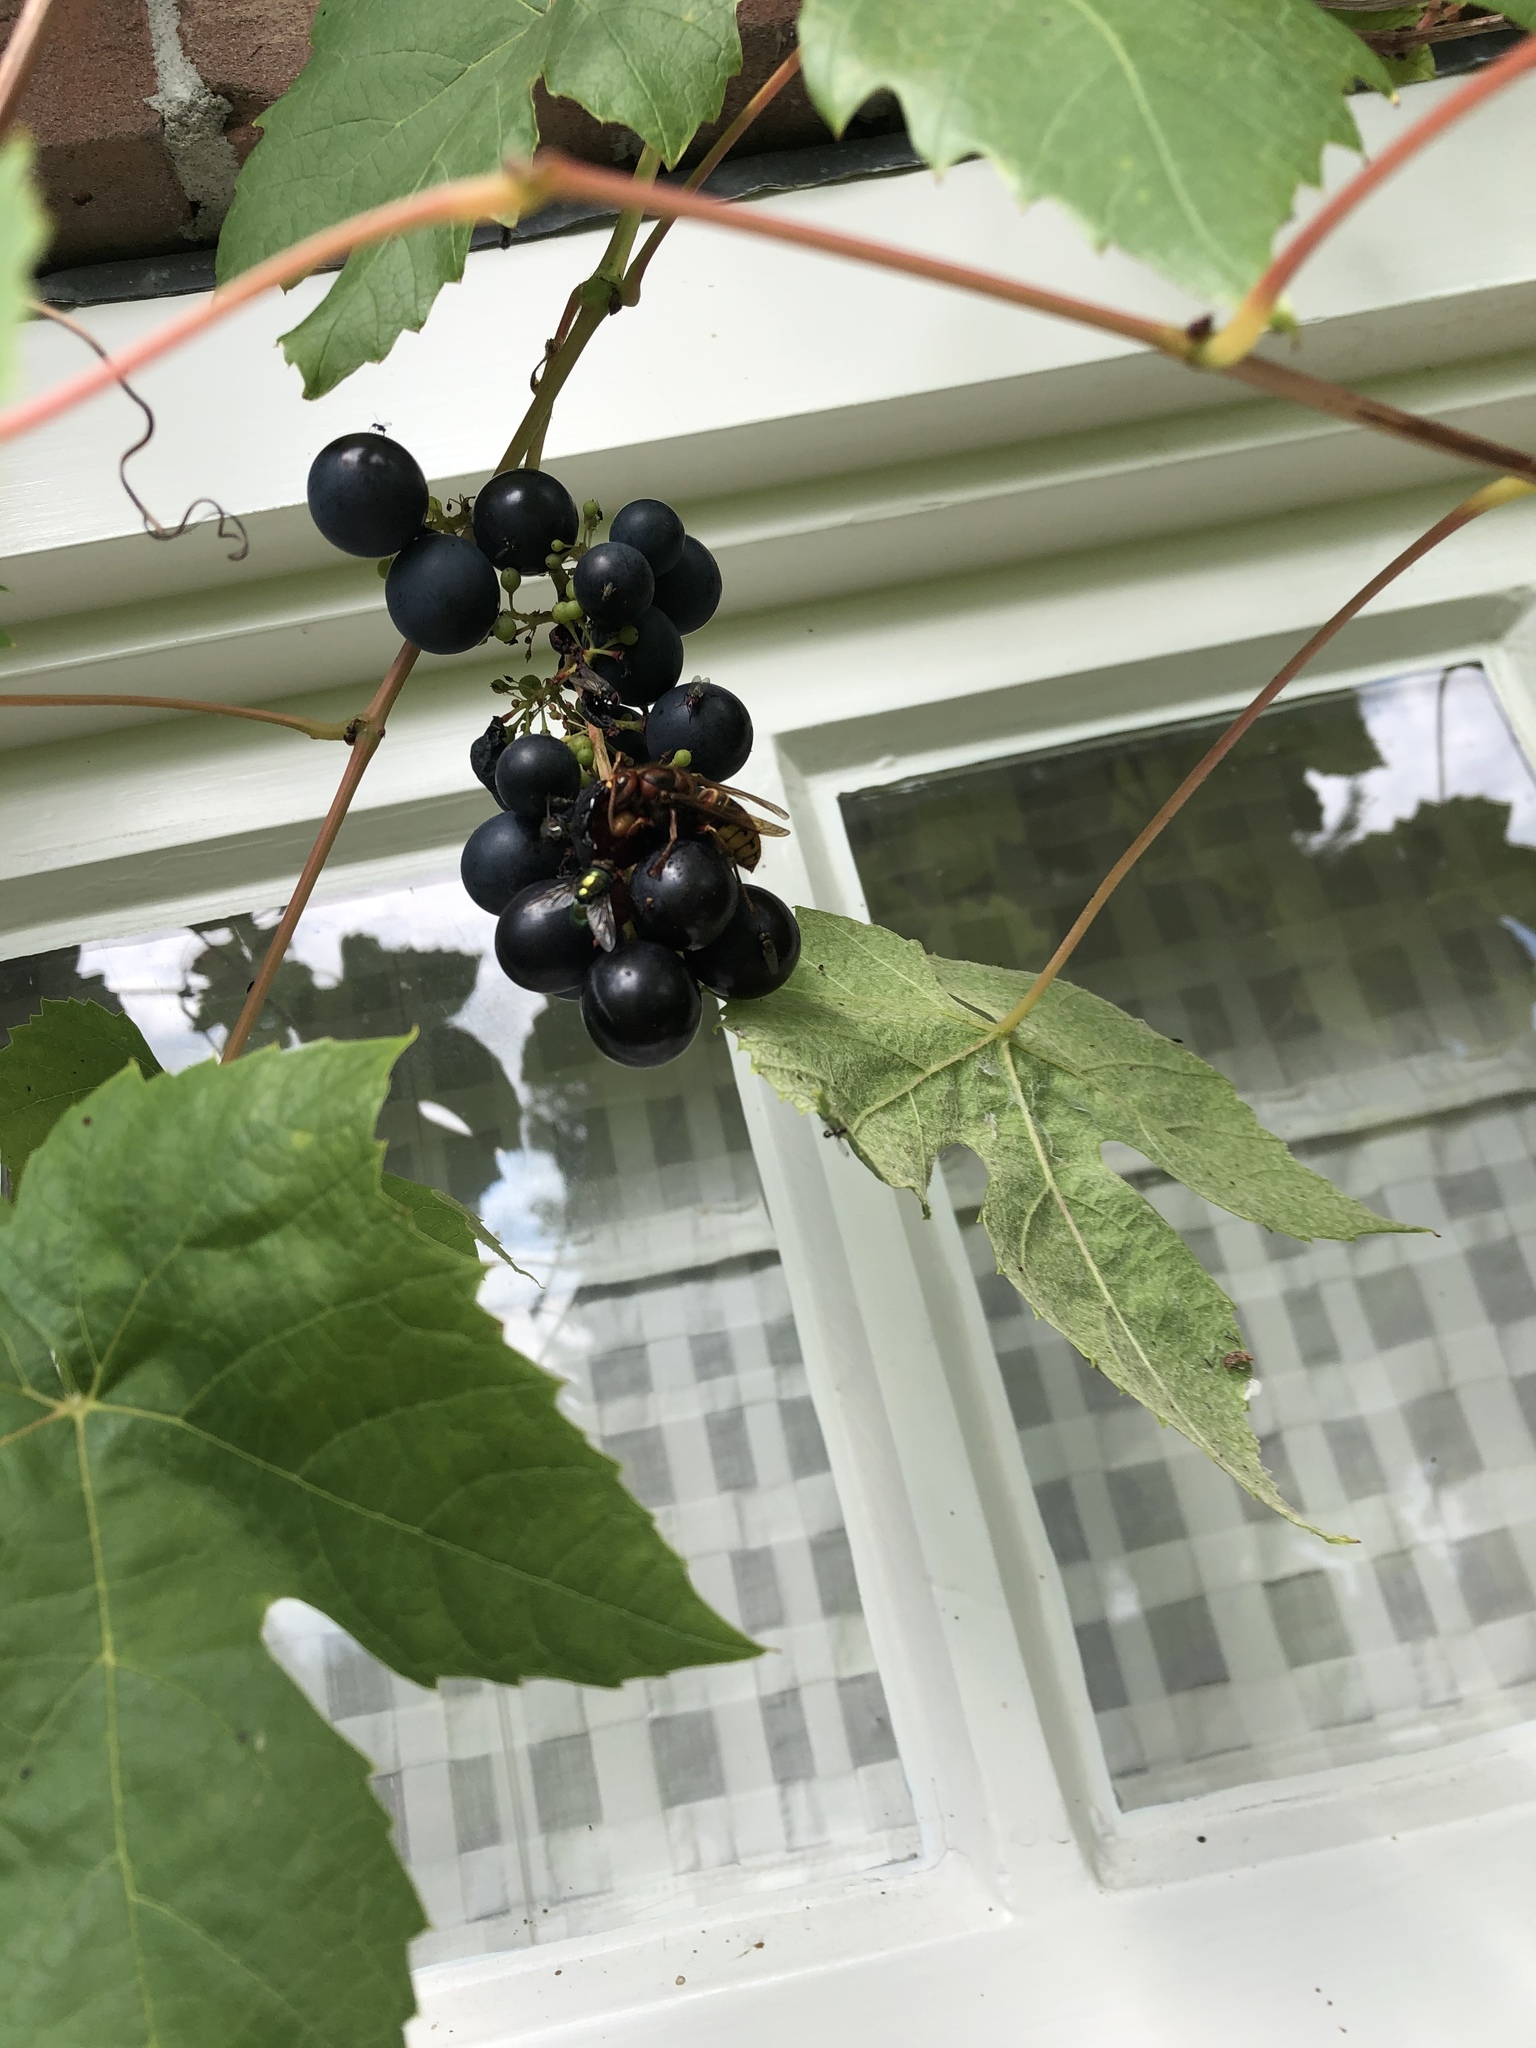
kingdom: Animalia
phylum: Arthropoda
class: Insecta
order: Hymenoptera
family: Vespidae
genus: Vespa
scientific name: Vespa crabro
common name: Hornet
